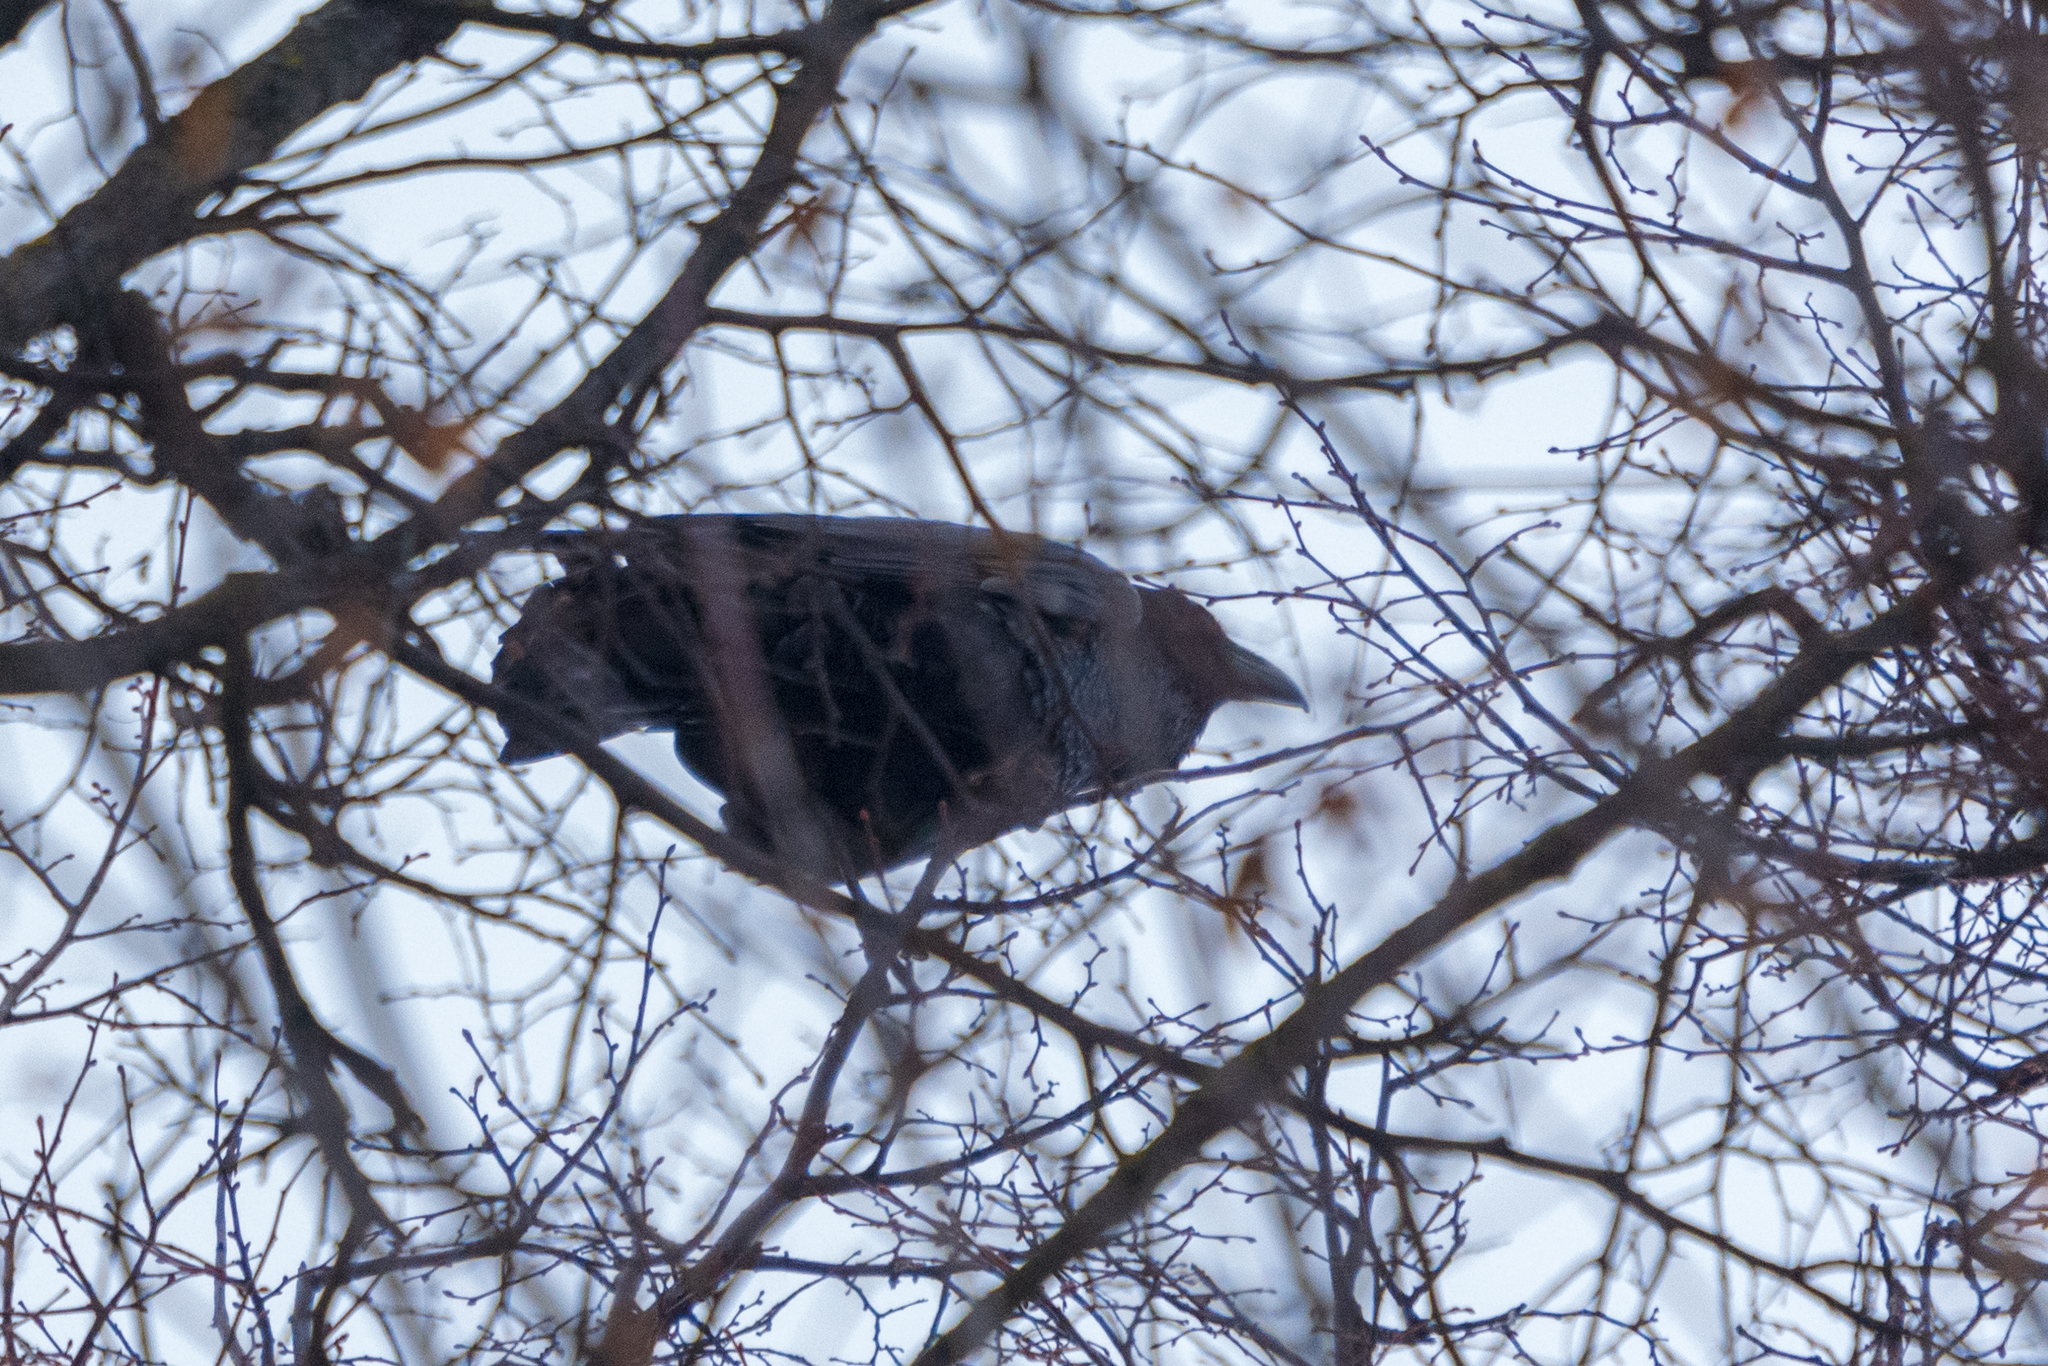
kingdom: Animalia
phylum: Chordata
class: Aves
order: Passeriformes
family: Corvidae
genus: Corvus
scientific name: Corvus corax
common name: Common raven
